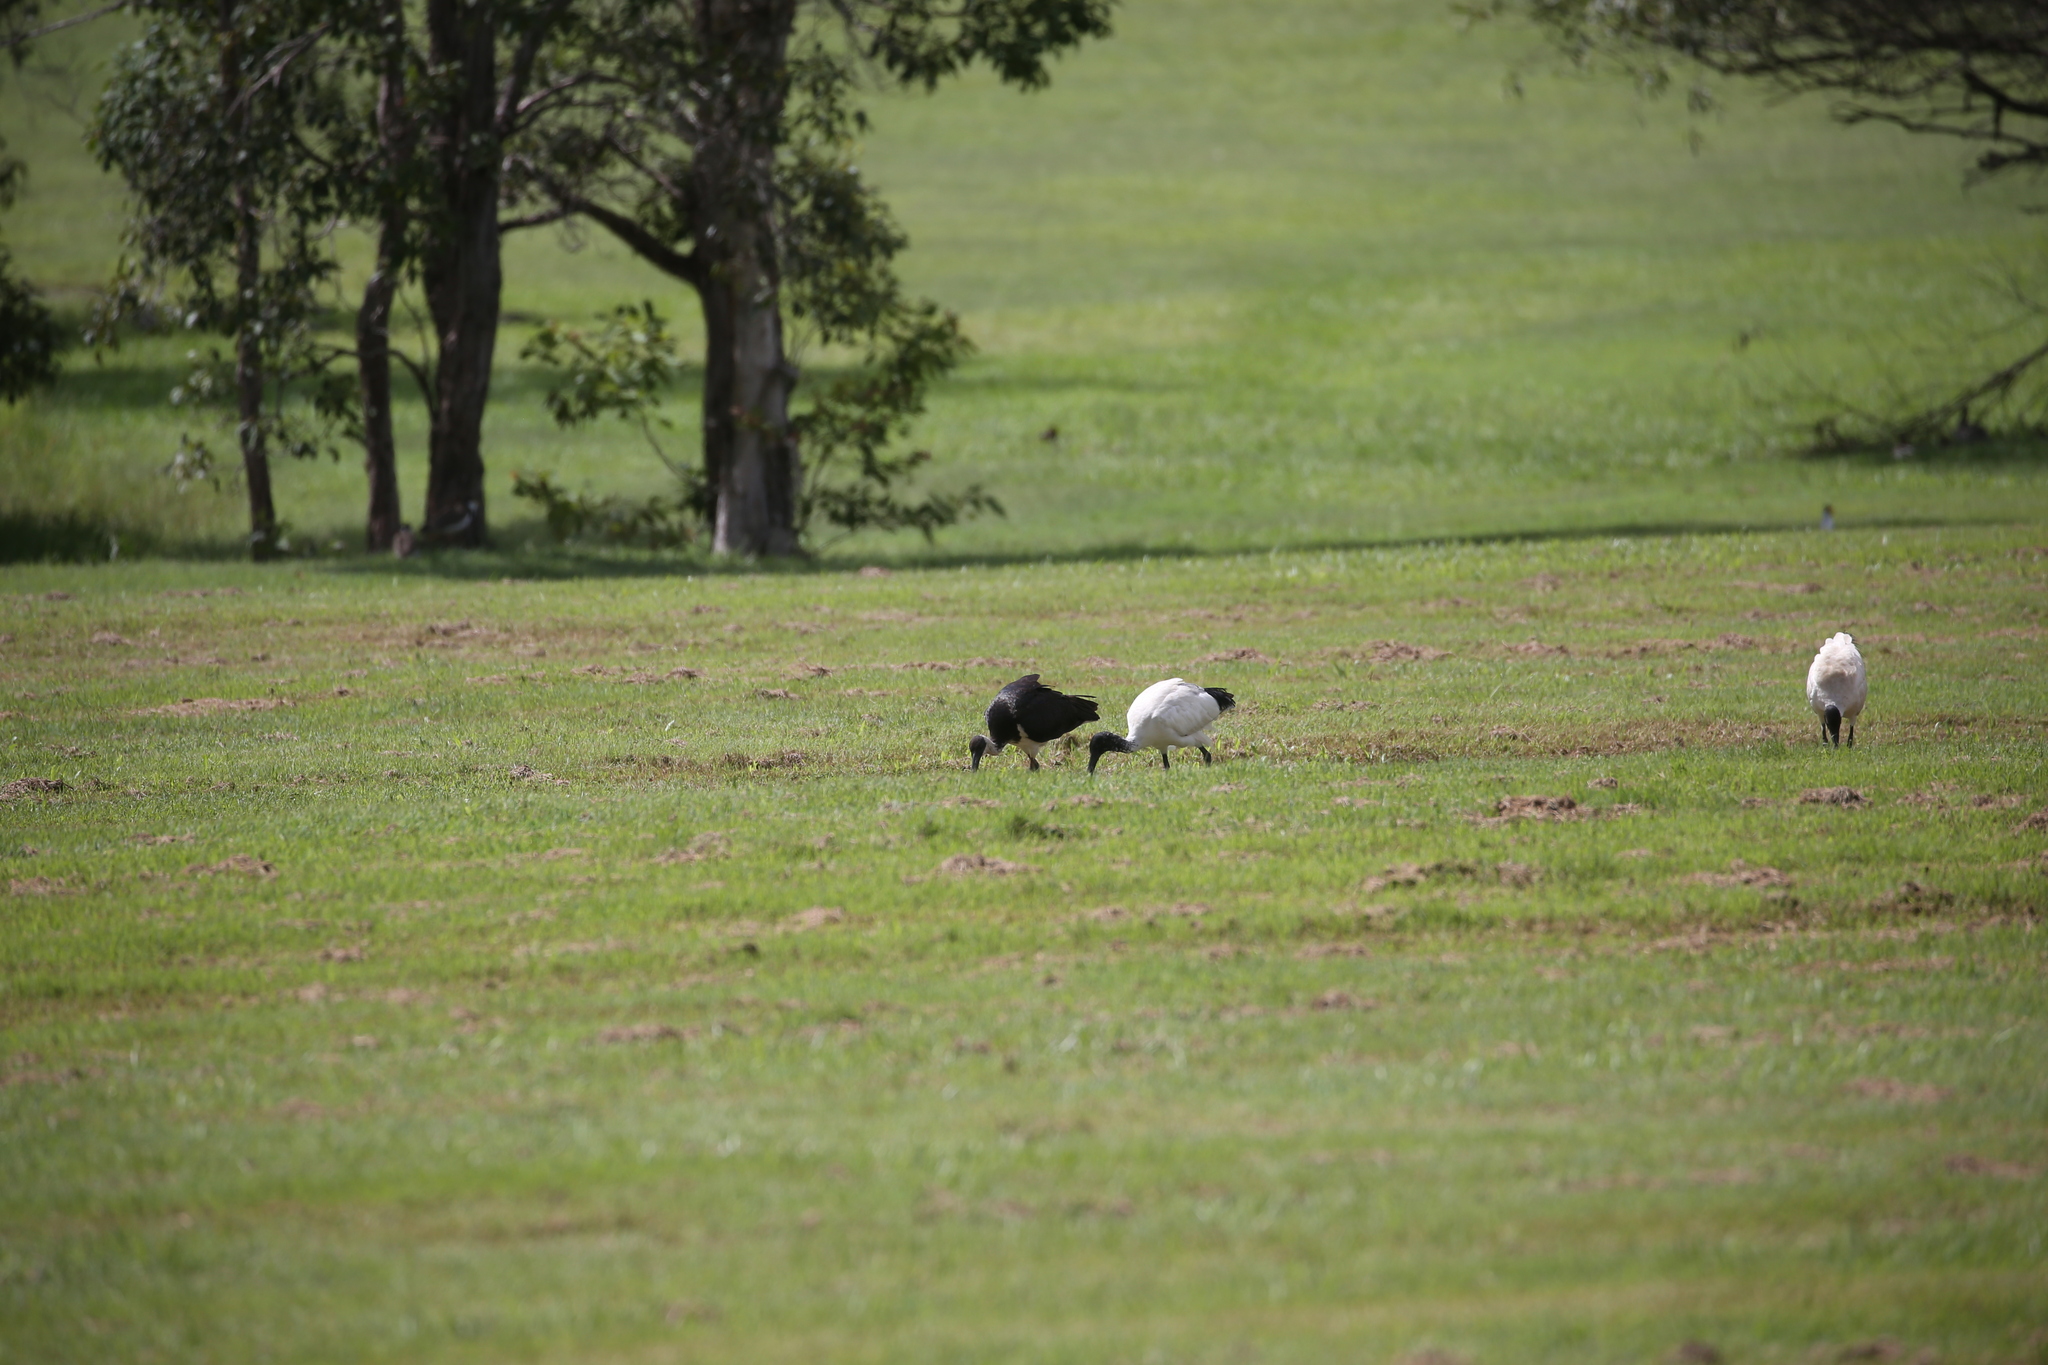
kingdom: Animalia
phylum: Chordata
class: Aves
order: Pelecaniformes
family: Threskiornithidae
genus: Threskiornis
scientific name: Threskiornis spinicollis
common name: Straw-necked ibis
